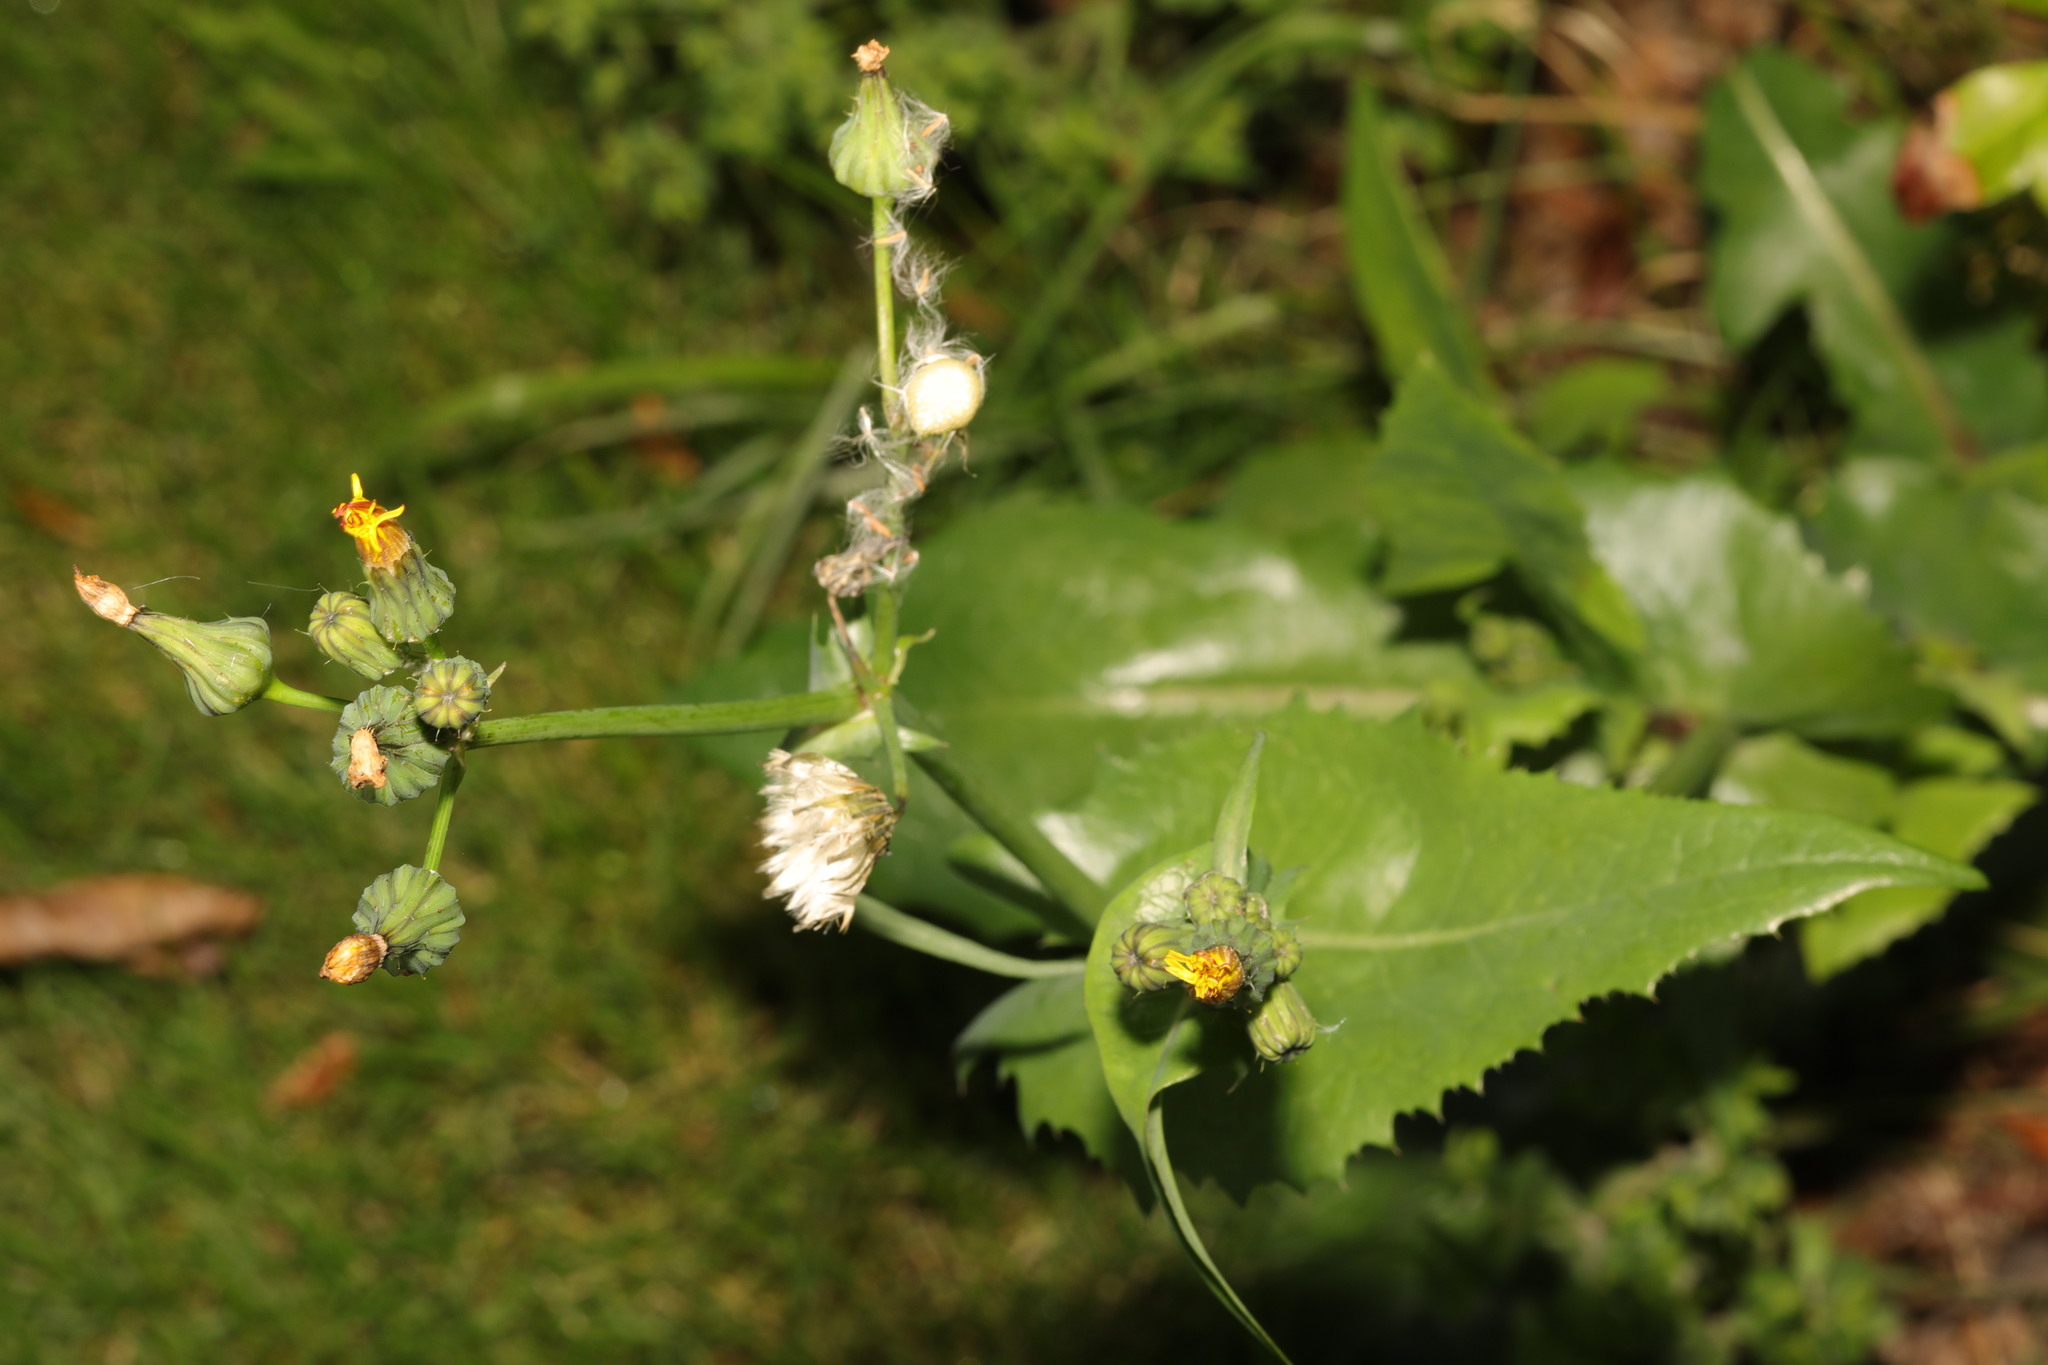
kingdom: Plantae
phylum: Tracheophyta
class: Magnoliopsida
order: Asterales
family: Asteraceae
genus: Sonchus
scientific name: Sonchus oleraceus
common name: Common sowthistle
